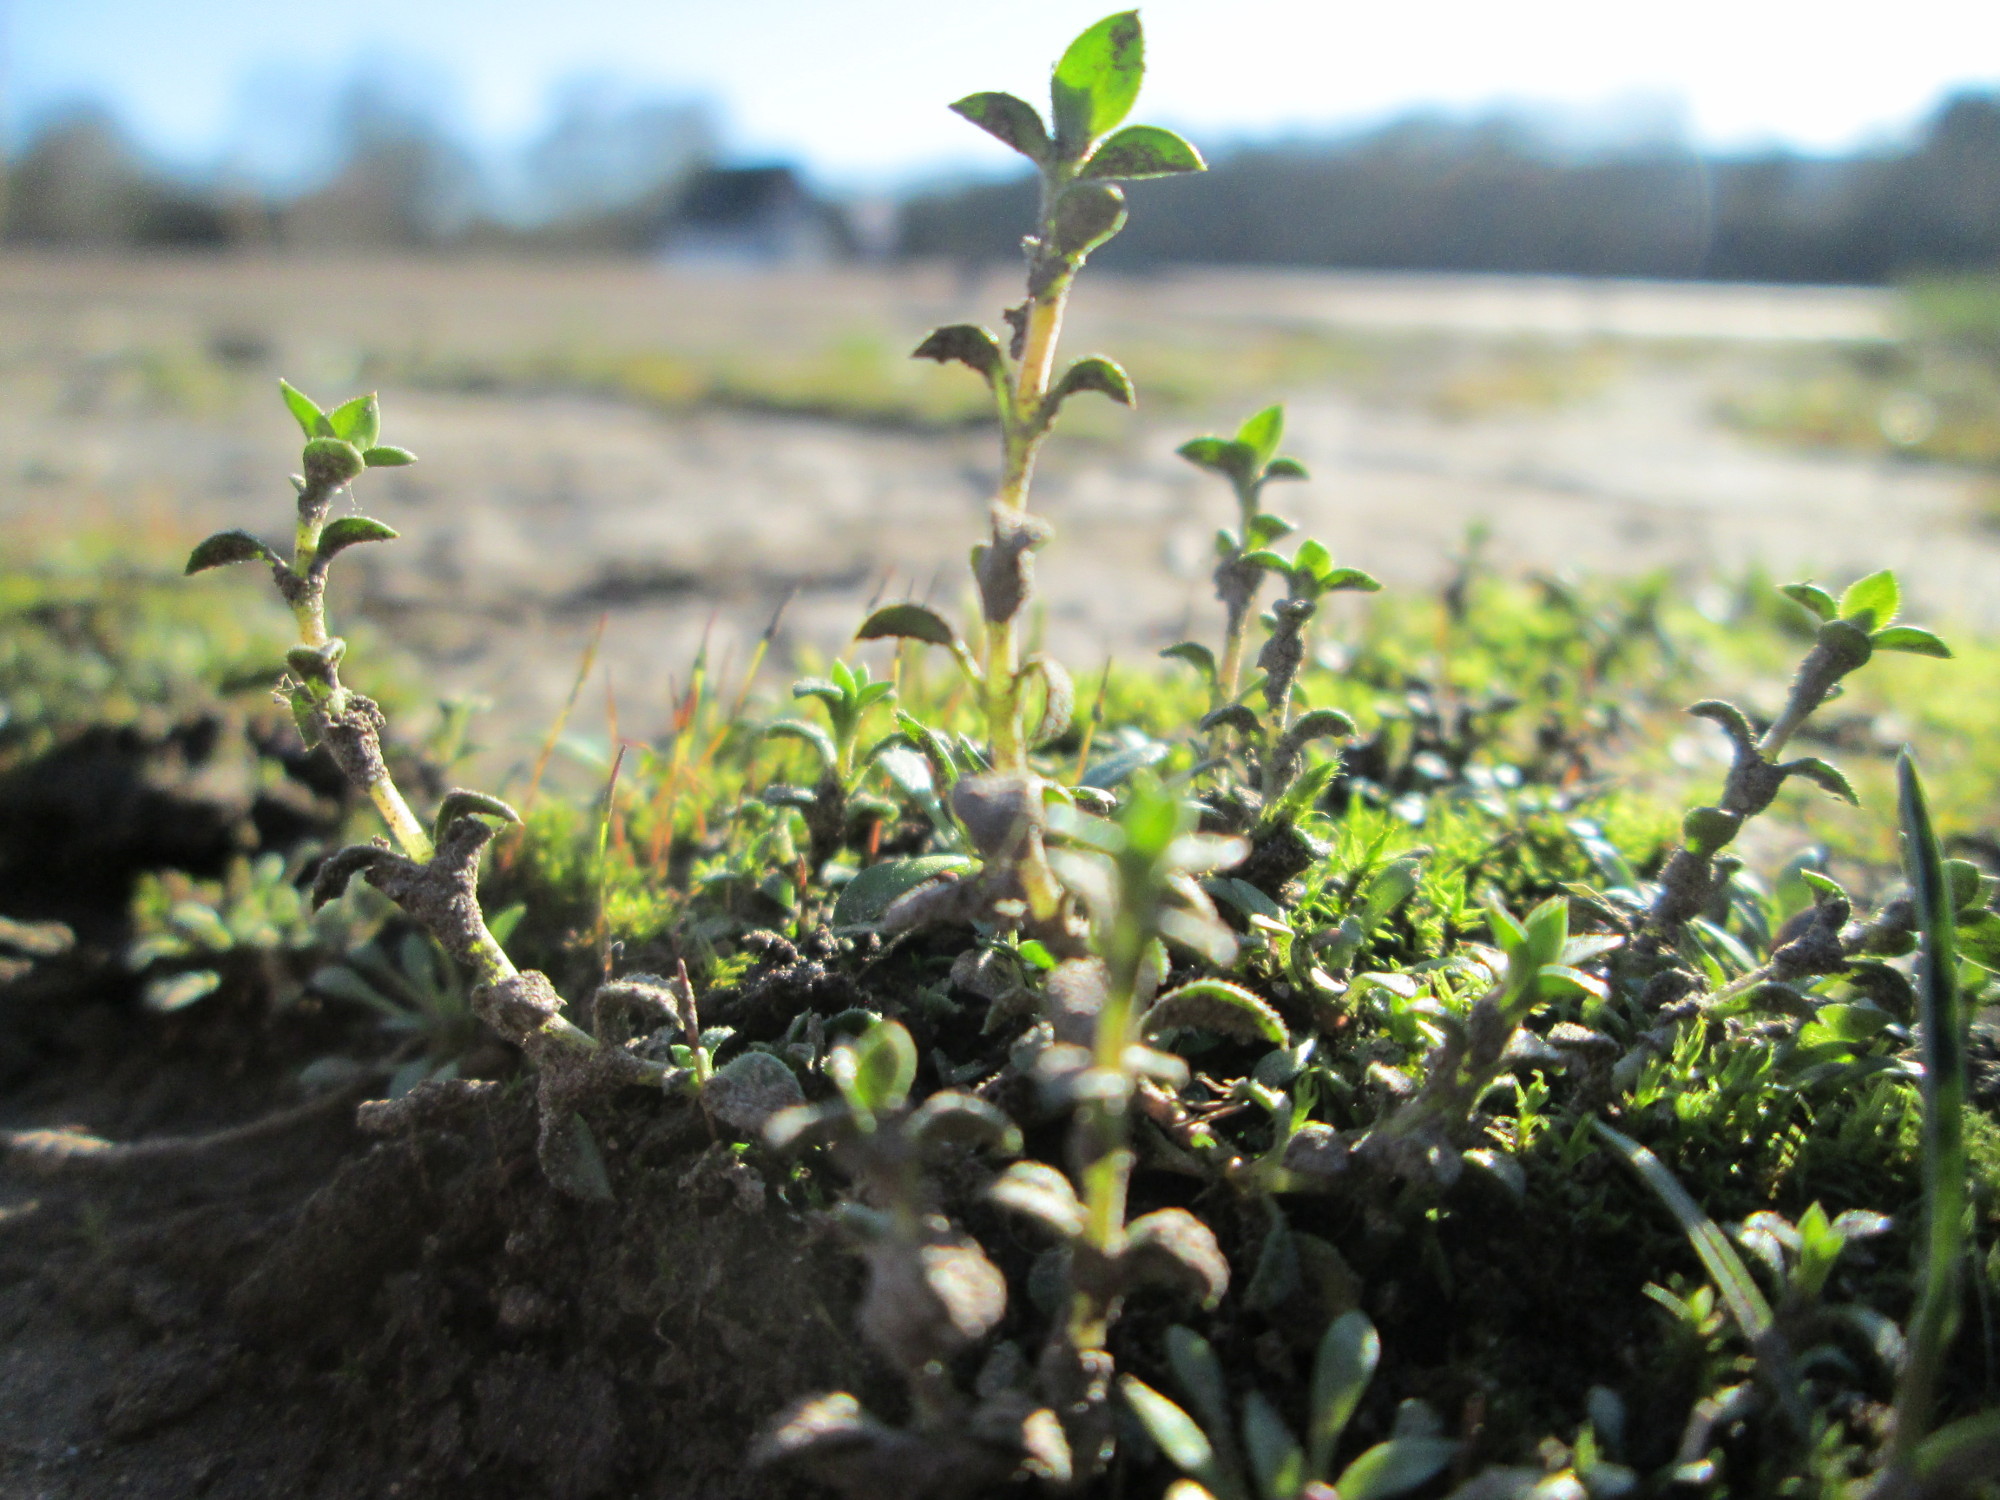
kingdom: Plantae
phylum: Tracheophyta
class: Magnoliopsida
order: Caryophyllales
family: Caryophyllaceae
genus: Arenaria
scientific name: Arenaria serpyllifolia
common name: Thyme-leaved sandwort
